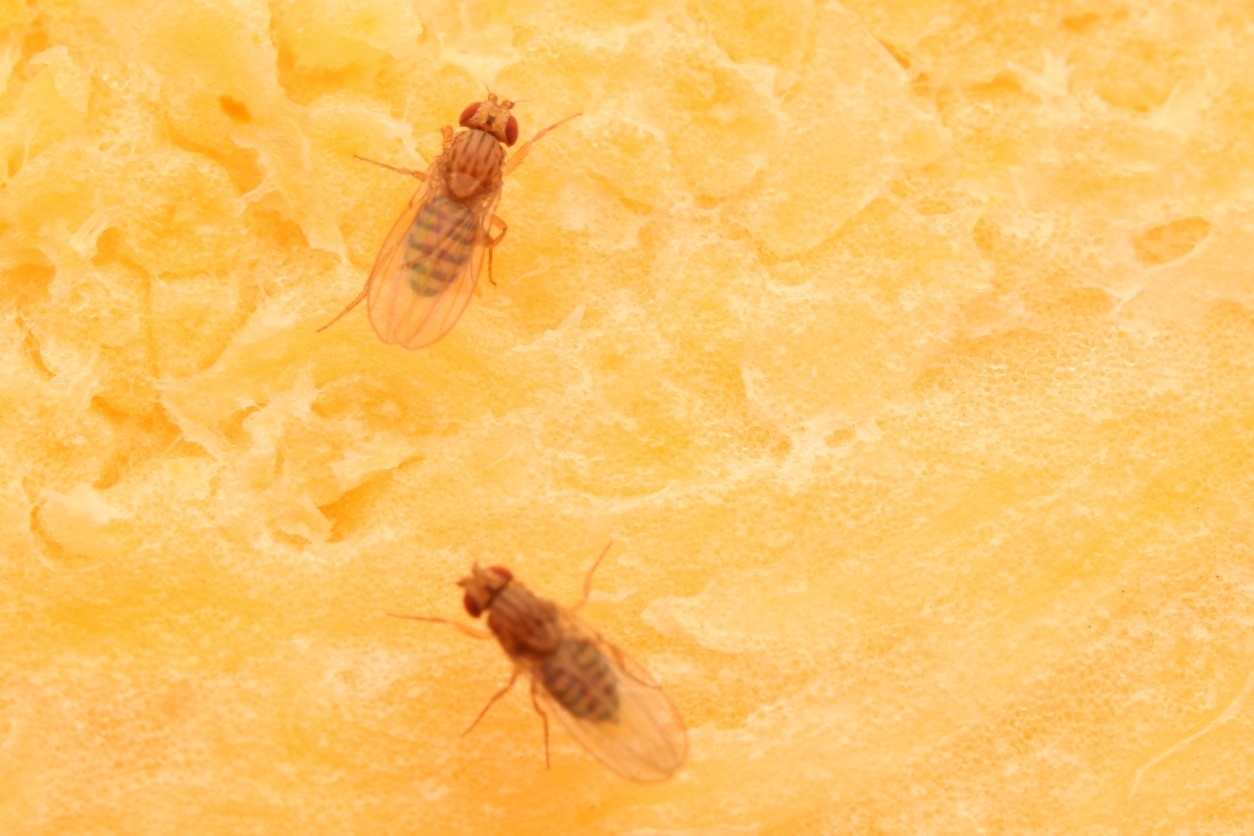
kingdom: Animalia
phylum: Arthropoda
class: Insecta
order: Diptera
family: Drosophilidae
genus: Drosophila
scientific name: Drosophila busckii
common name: Pomace fly
